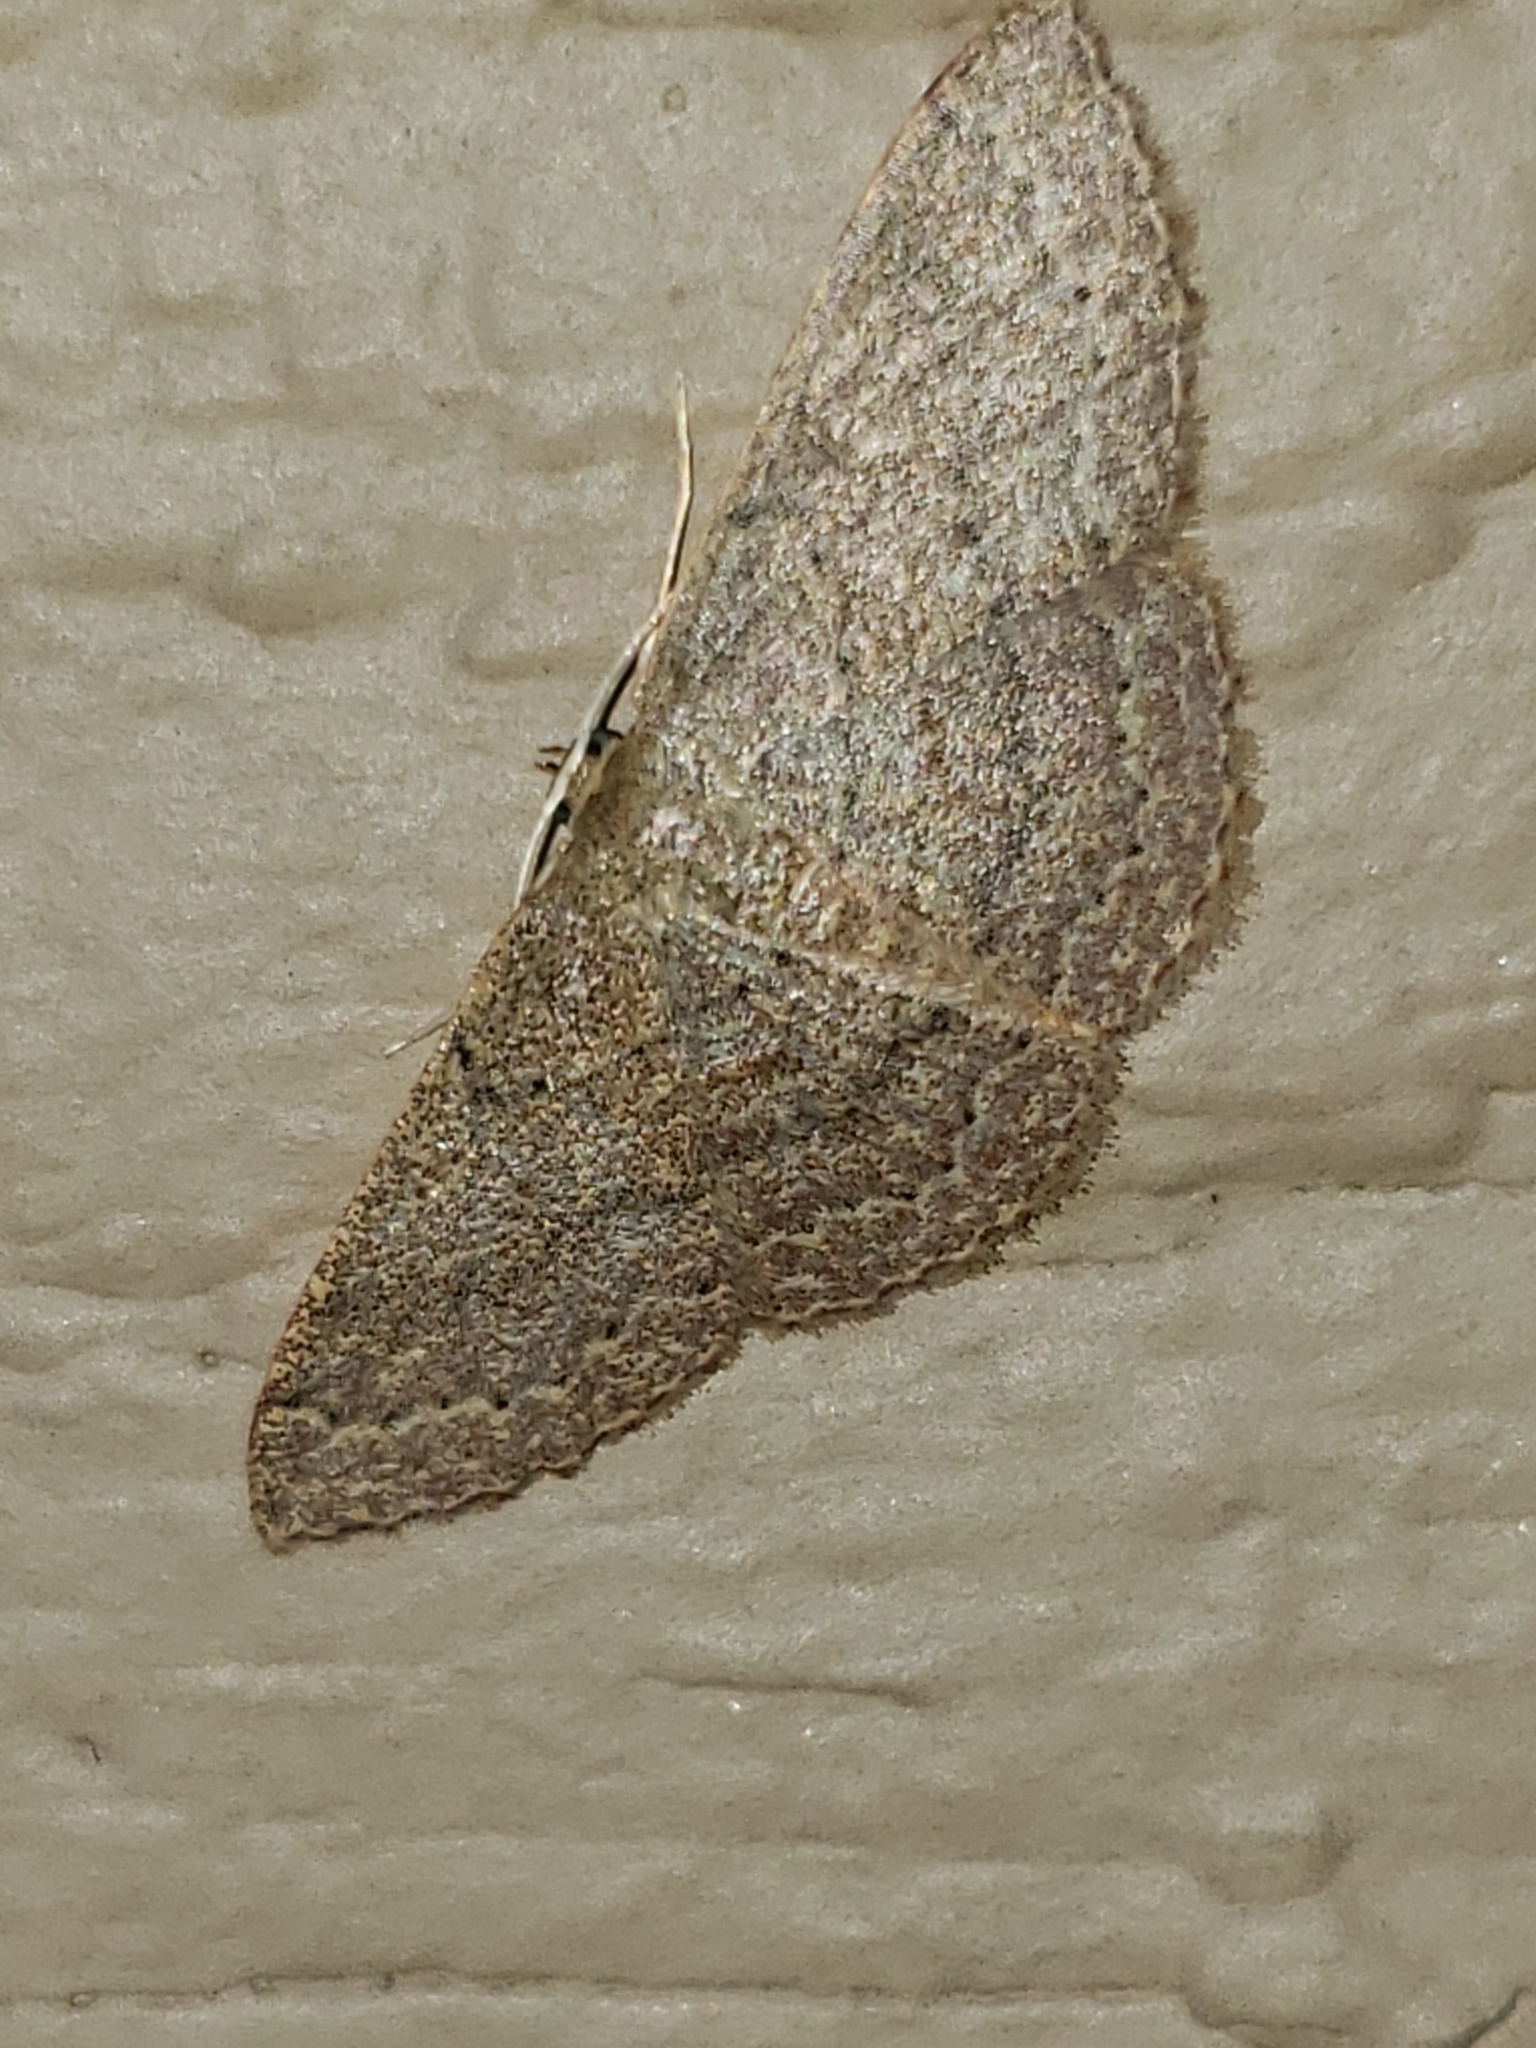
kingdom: Animalia
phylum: Arthropoda
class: Insecta
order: Lepidoptera
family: Geometridae
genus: Pleuroprucha
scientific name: Pleuroprucha insulsaria
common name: Common tan wave
